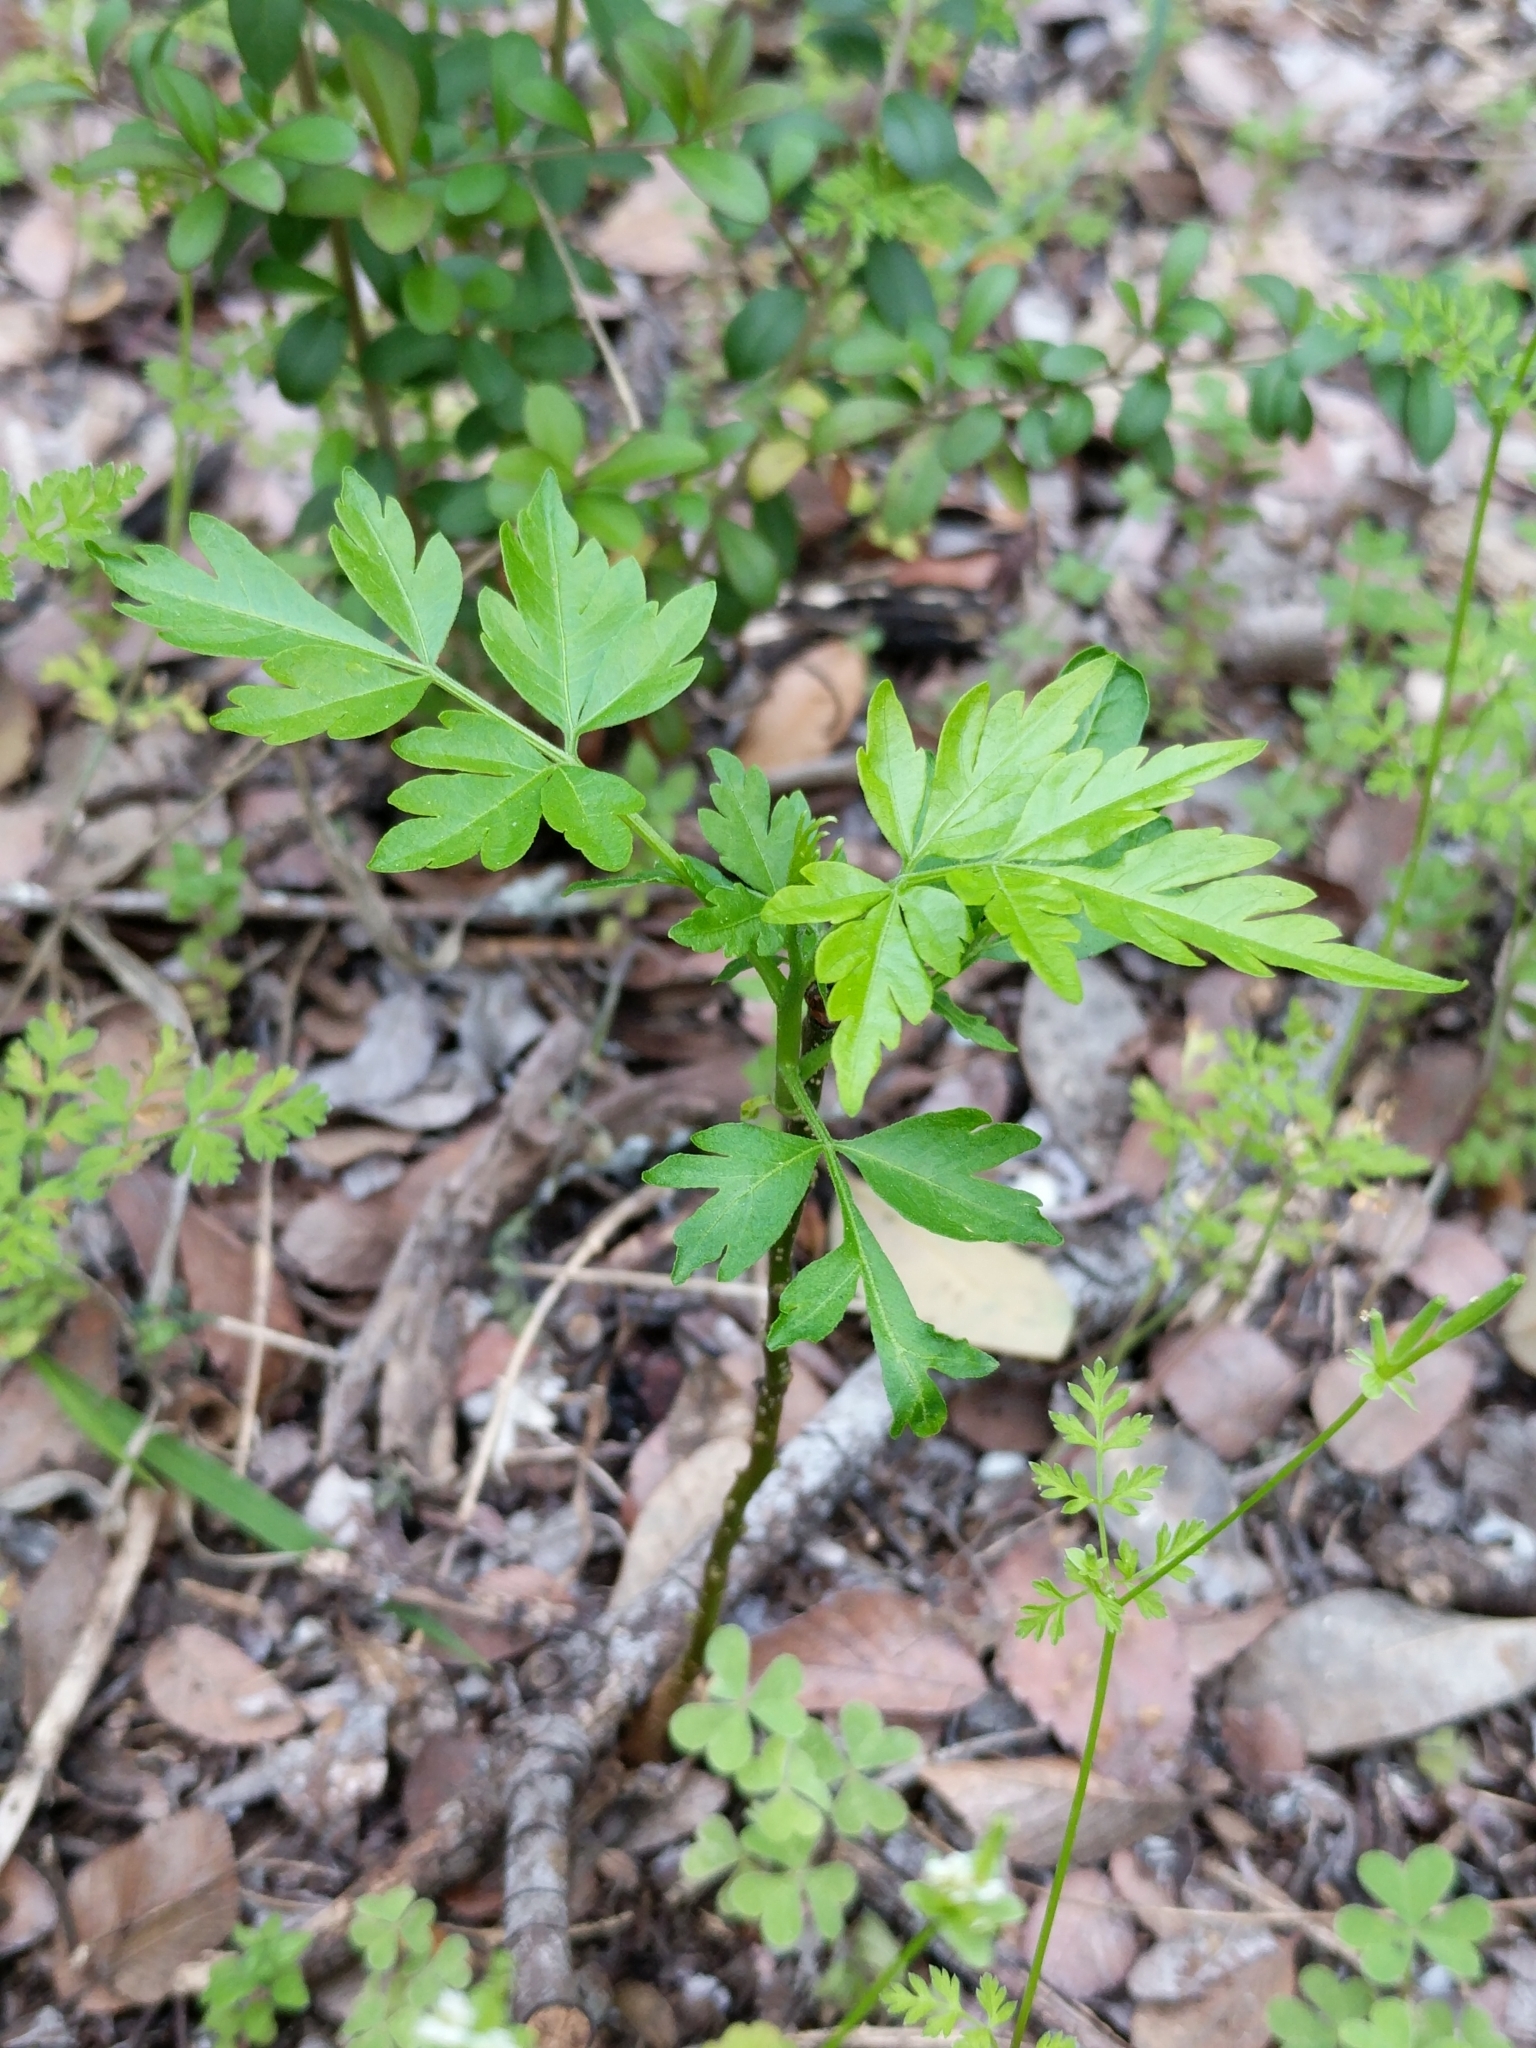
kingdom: Plantae
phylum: Tracheophyta
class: Magnoliopsida
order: Sapindales
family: Meliaceae
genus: Melia
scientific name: Melia azedarach
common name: Chinaberrytree
